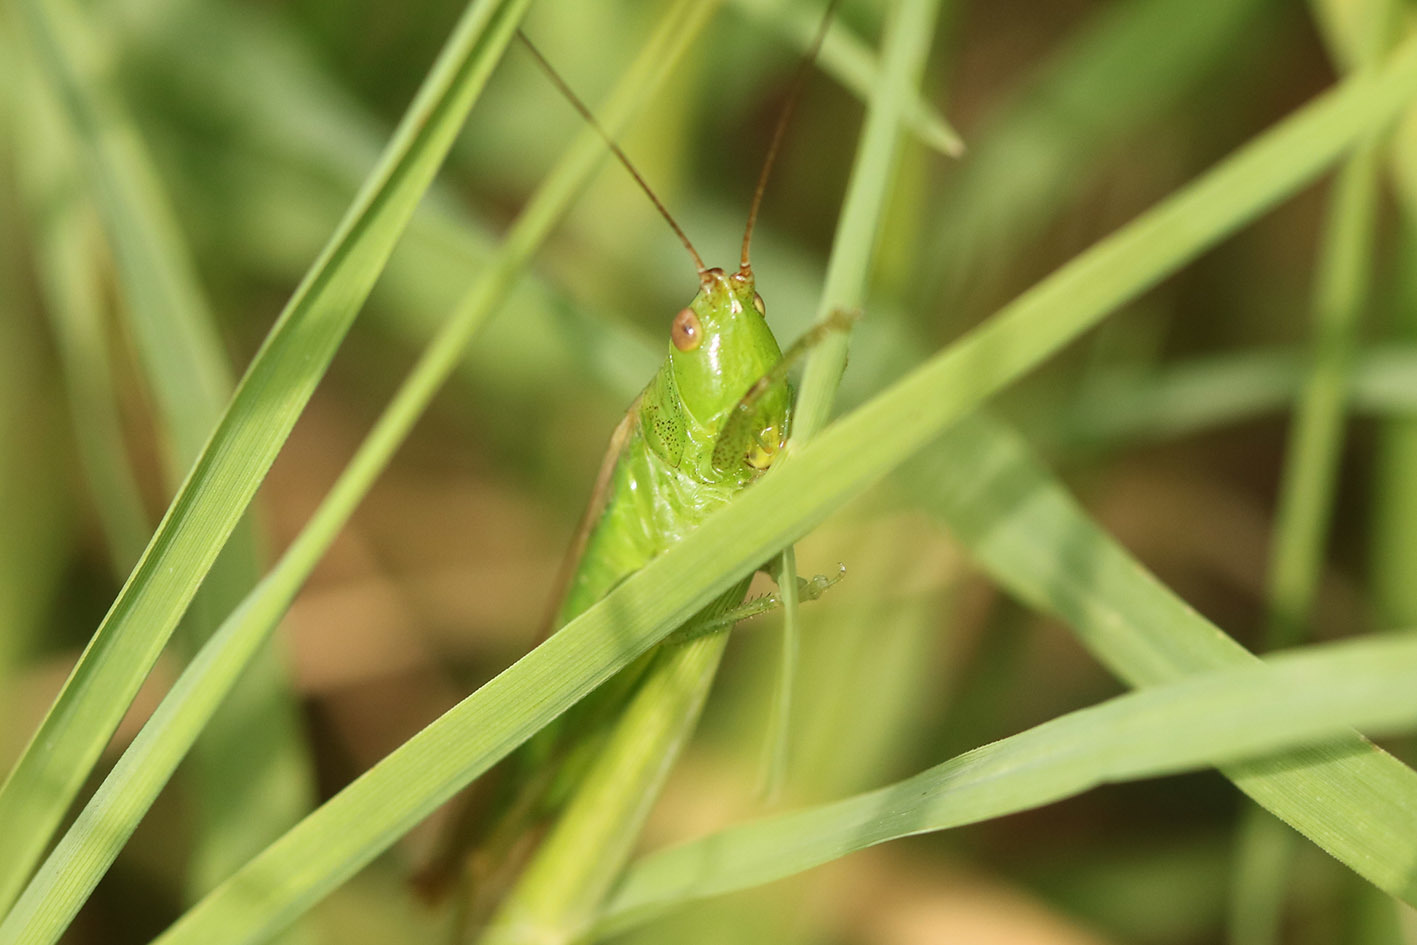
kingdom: Animalia
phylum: Arthropoda
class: Insecta
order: Orthoptera
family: Tettigoniidae
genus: Conocephalus
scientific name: Conocephalus longipes
